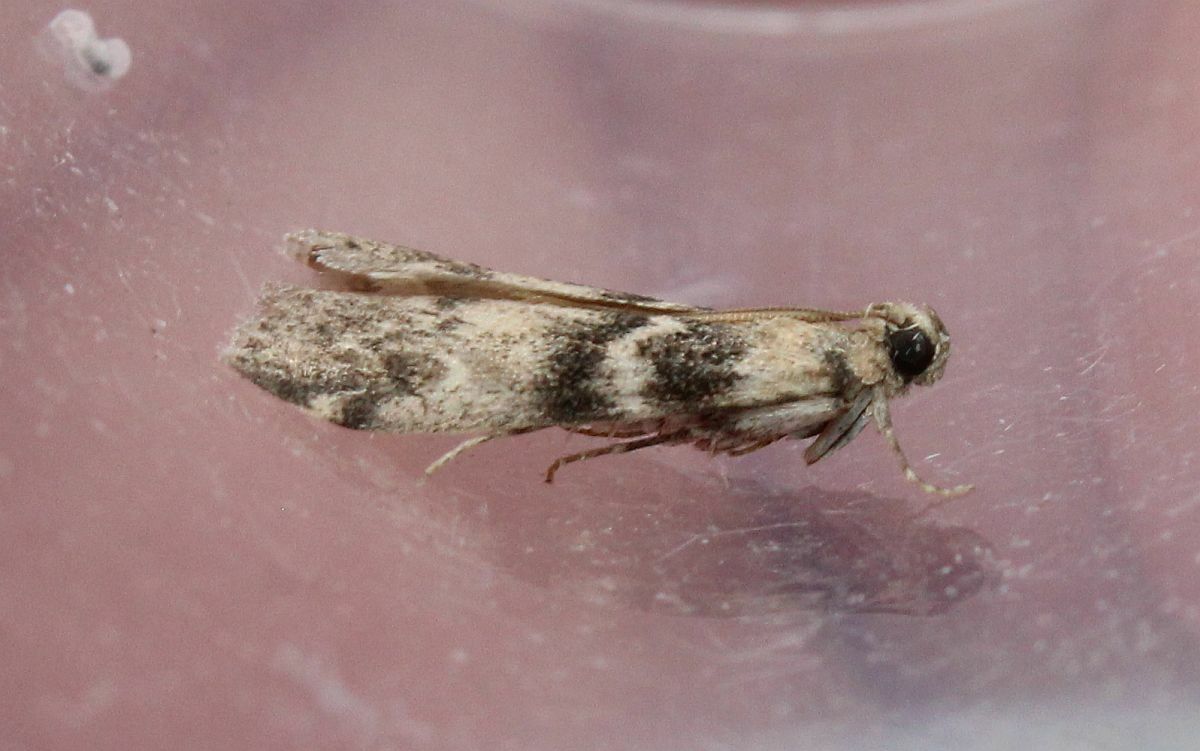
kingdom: Animalia
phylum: Arthropoda
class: Insecta
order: Lepidoptera
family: Pyralidae
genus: Euzophera
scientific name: Euzophera pinguis
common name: Ash-bark knot-horn
